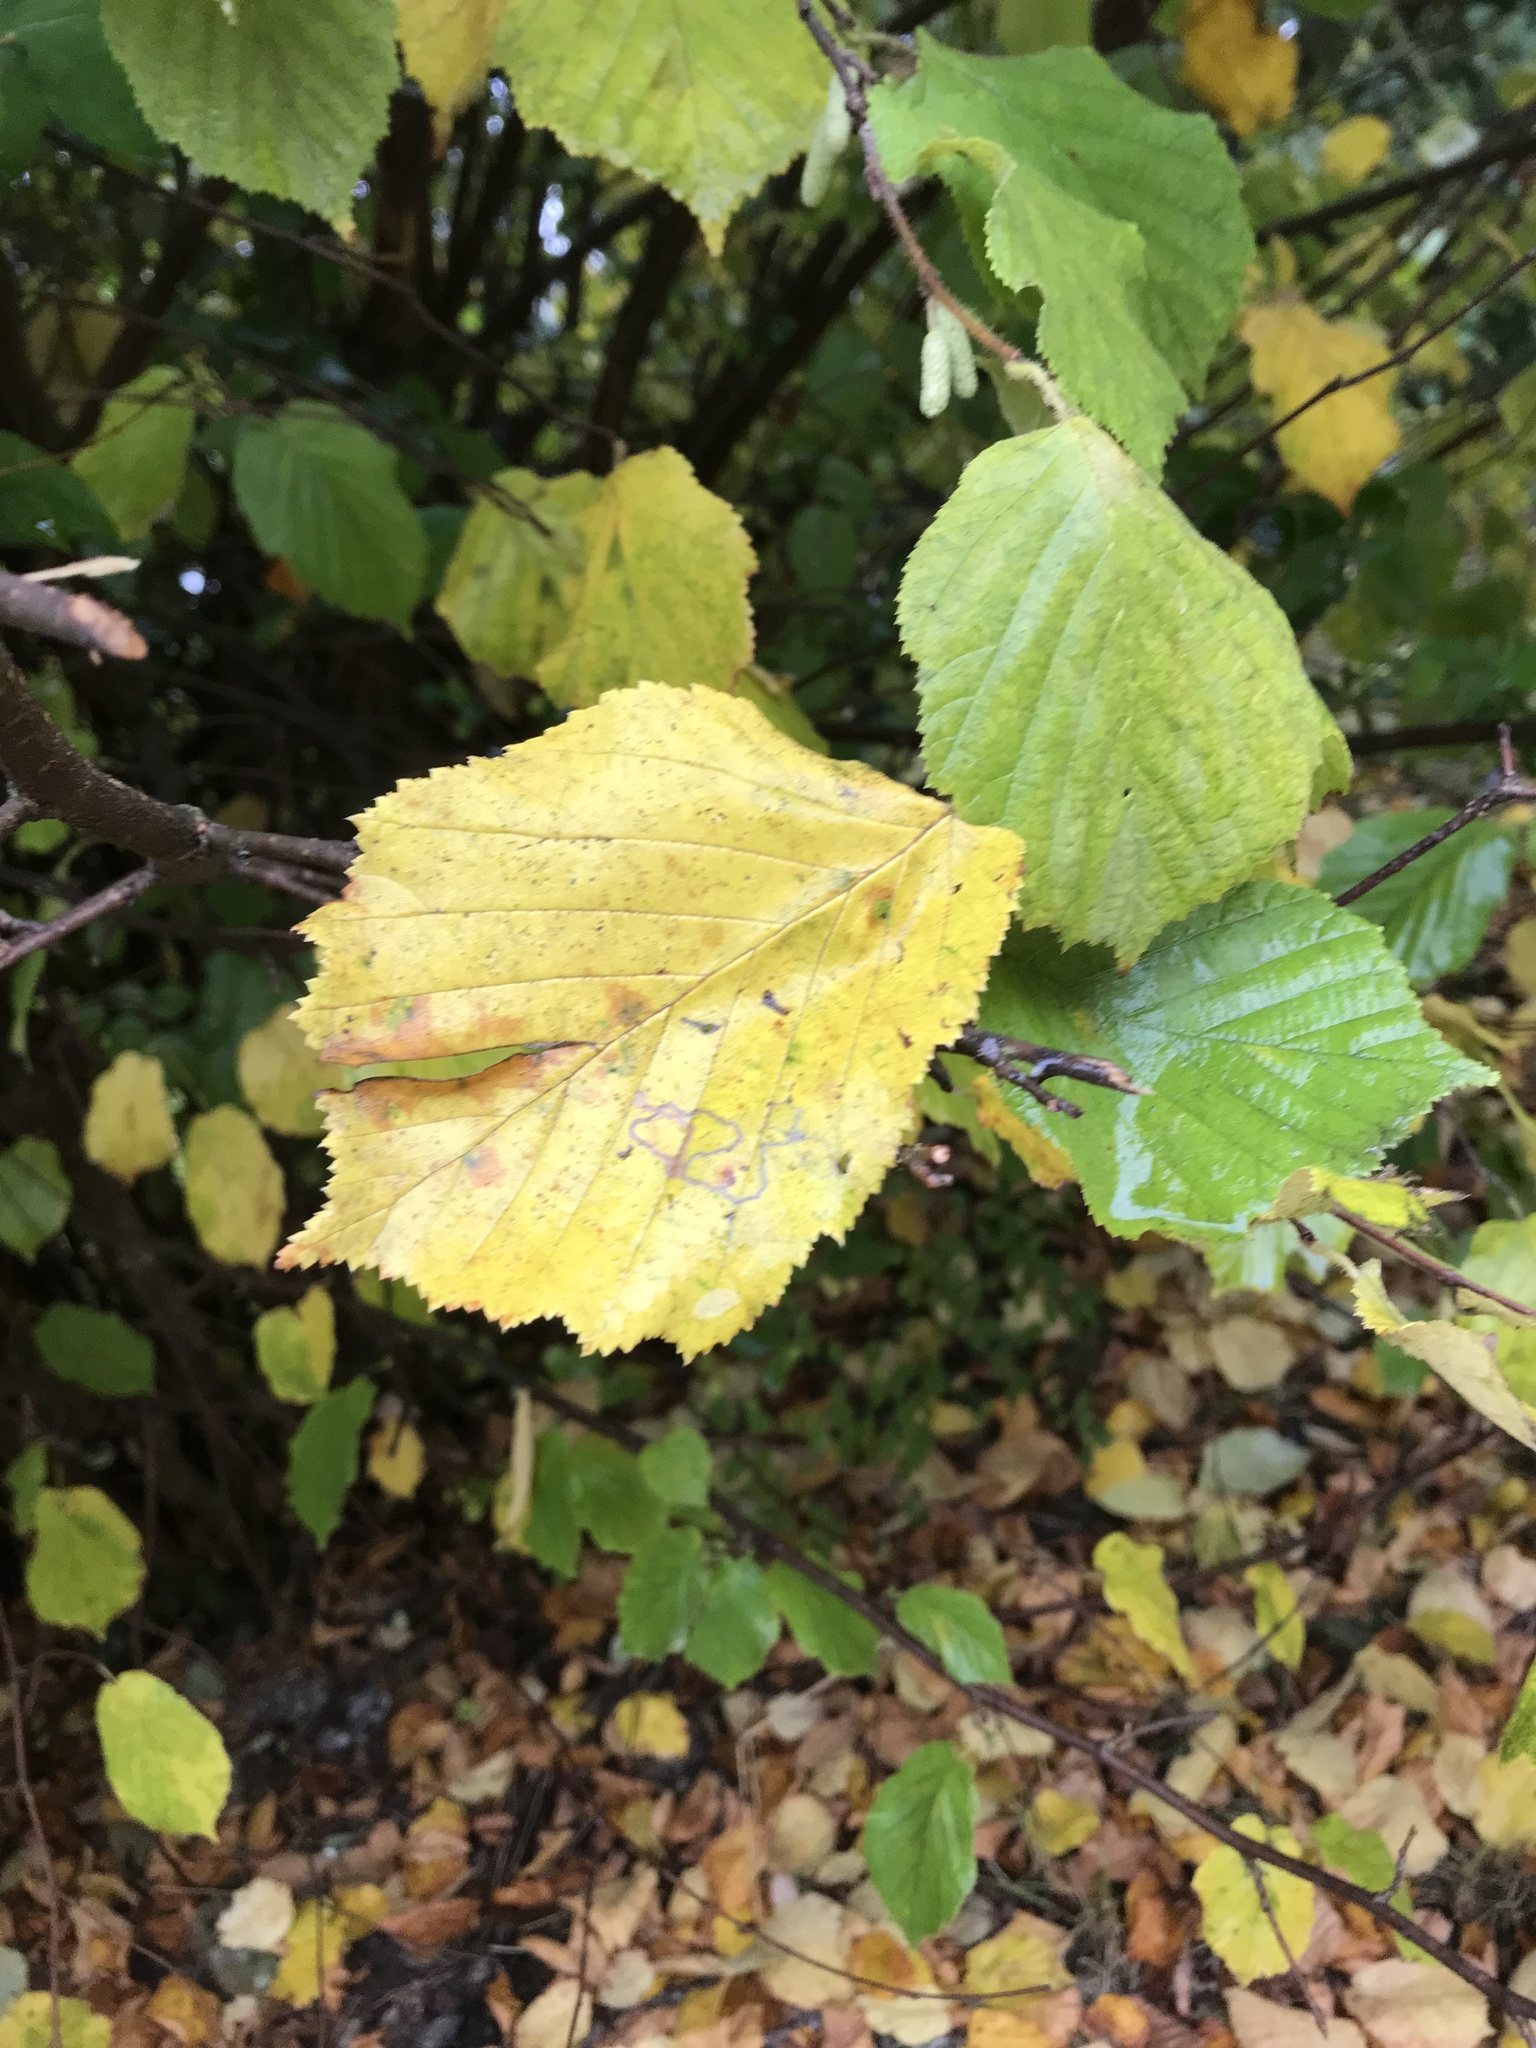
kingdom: Plantae
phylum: Tracheophyta
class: Magnoliopsida
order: Fagales
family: Betulaceae
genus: Corylus
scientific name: Corylus avellana
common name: European hazel
